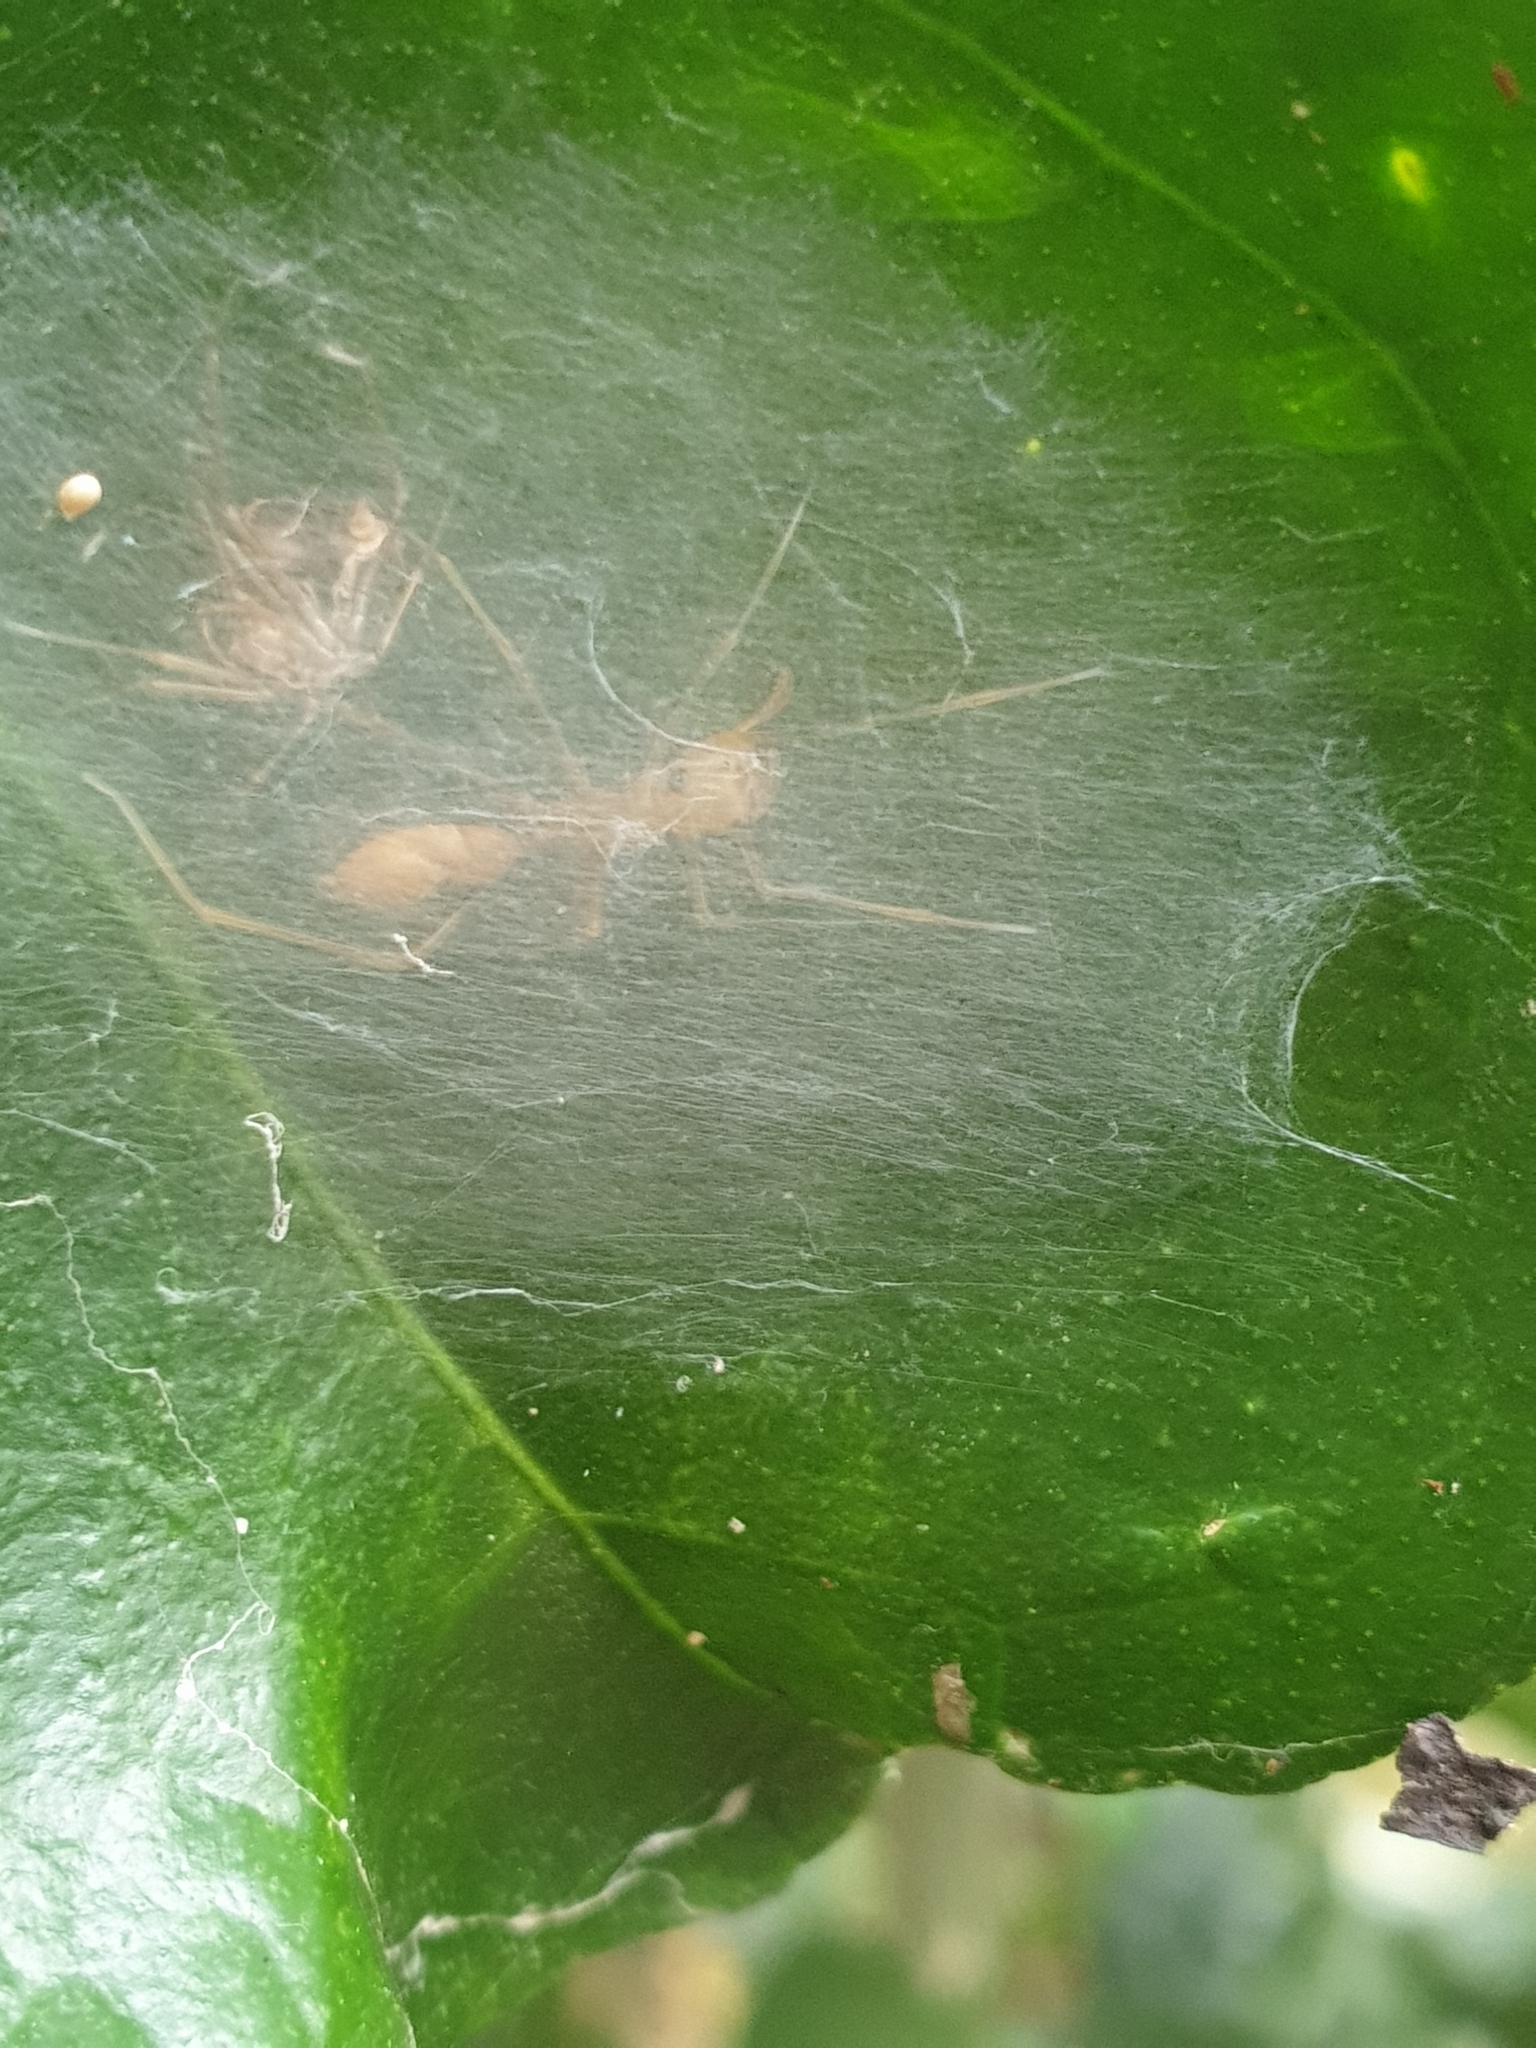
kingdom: Animalia
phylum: Arthropoda
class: Arachnida
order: Araneae
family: Salticidae
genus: Myrmaplata
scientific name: Myrmaplata plataleoides
